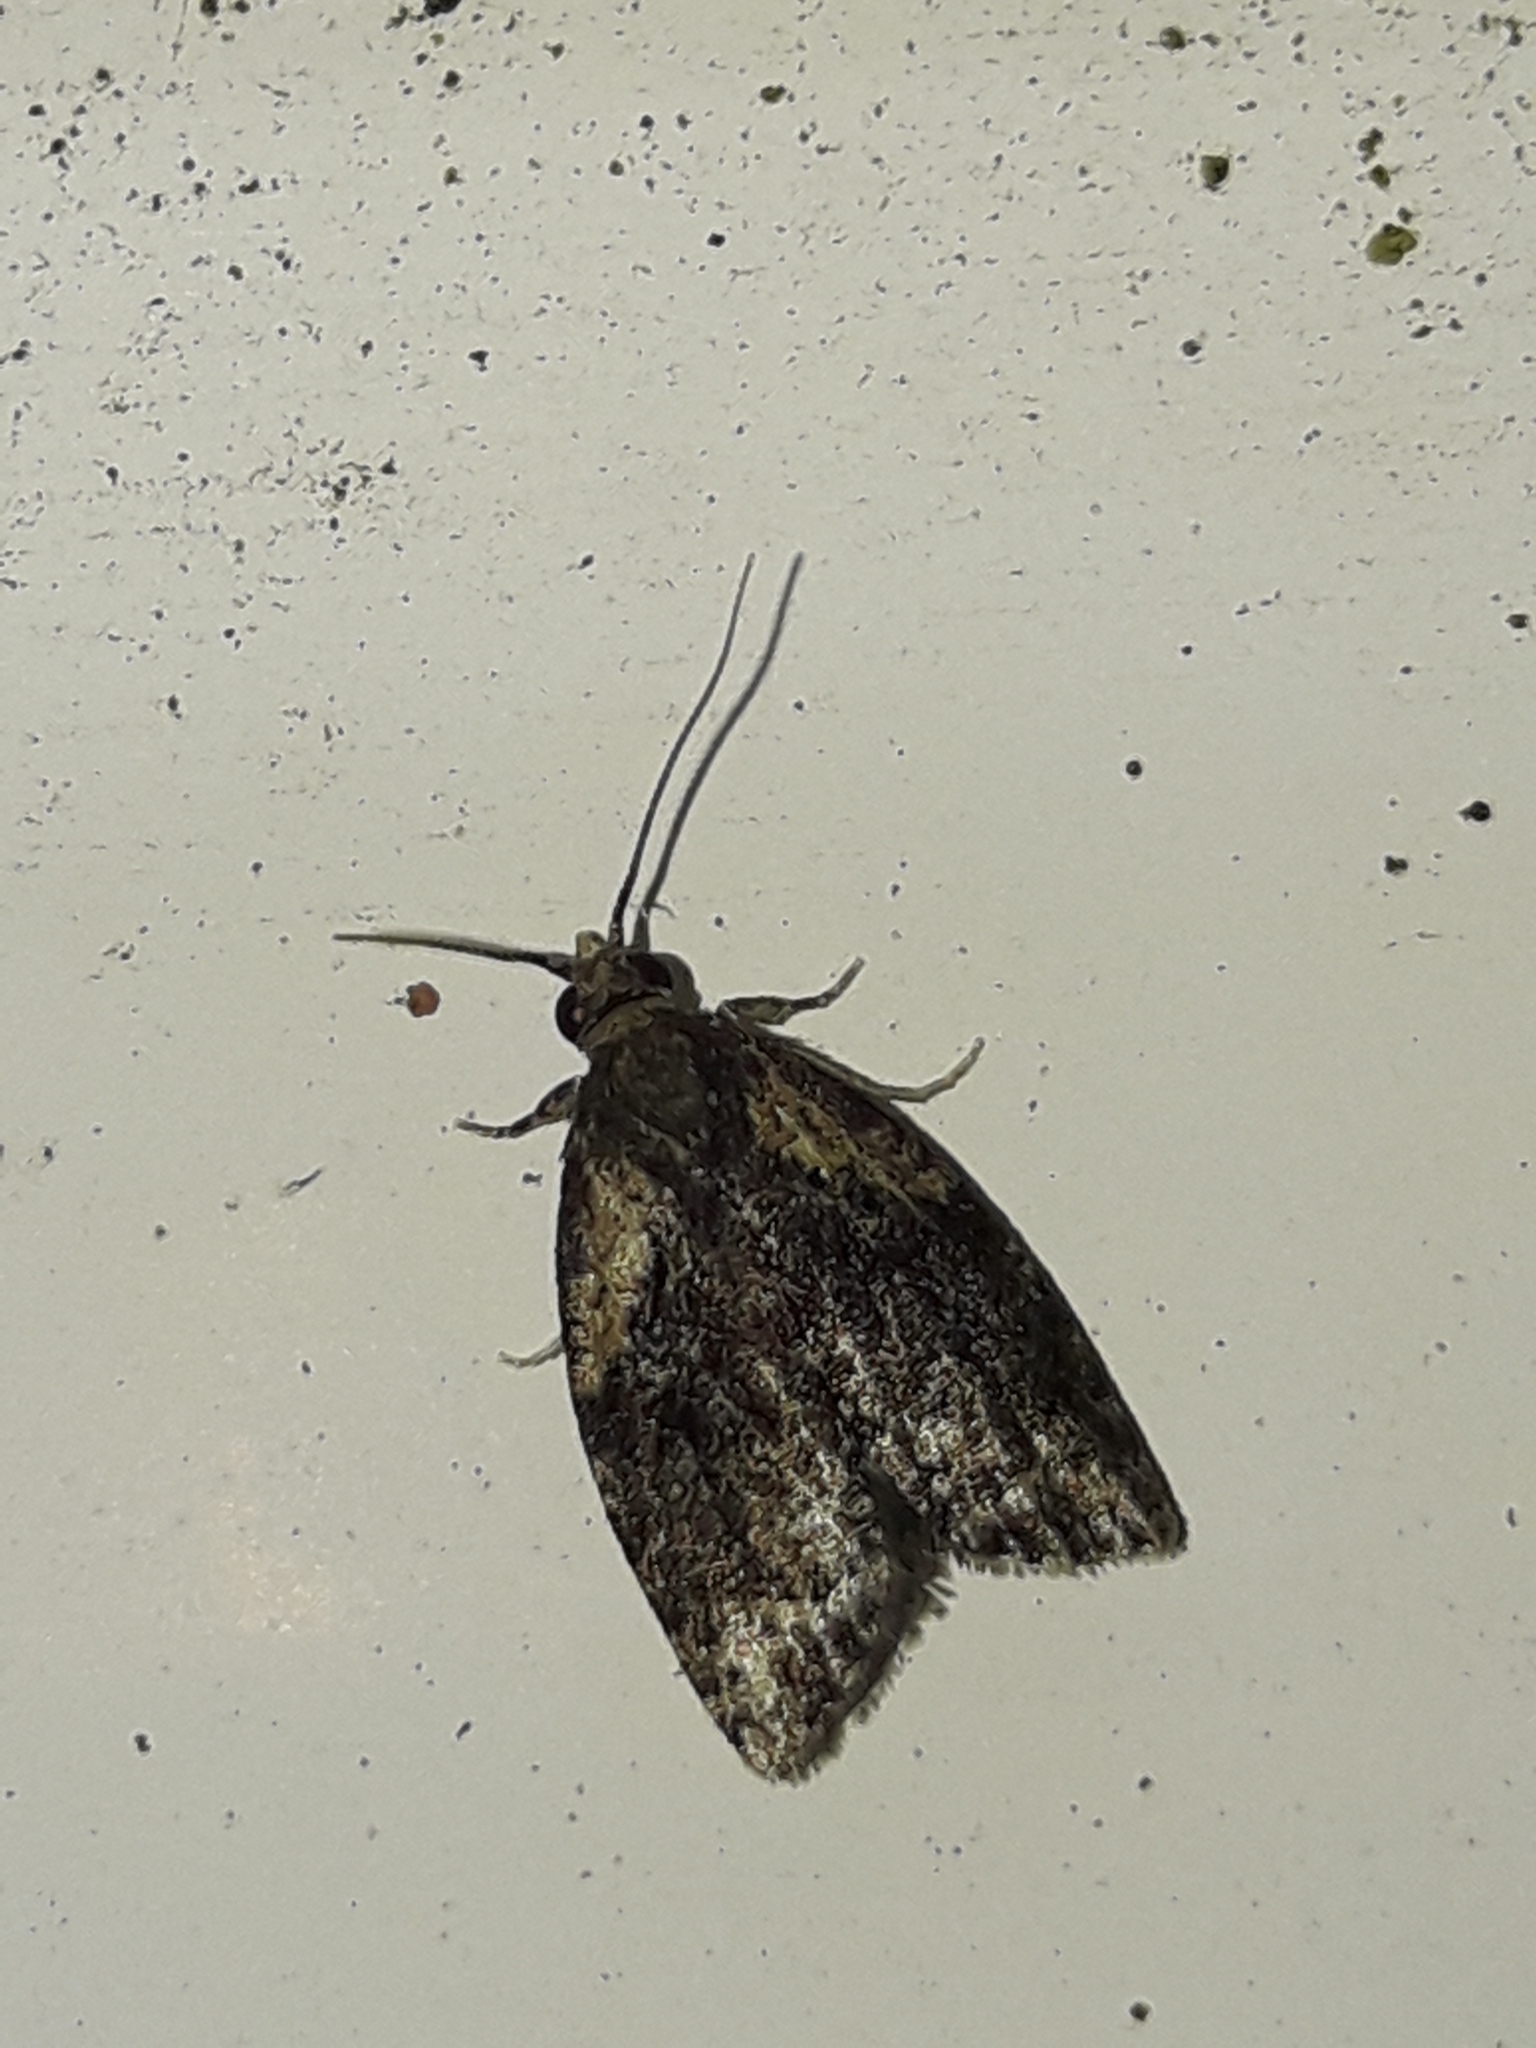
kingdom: Animalia
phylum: Arthropoda
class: Insecta
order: Lepidoptera
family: Tortricidae
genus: Capua
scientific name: Capua intractana
